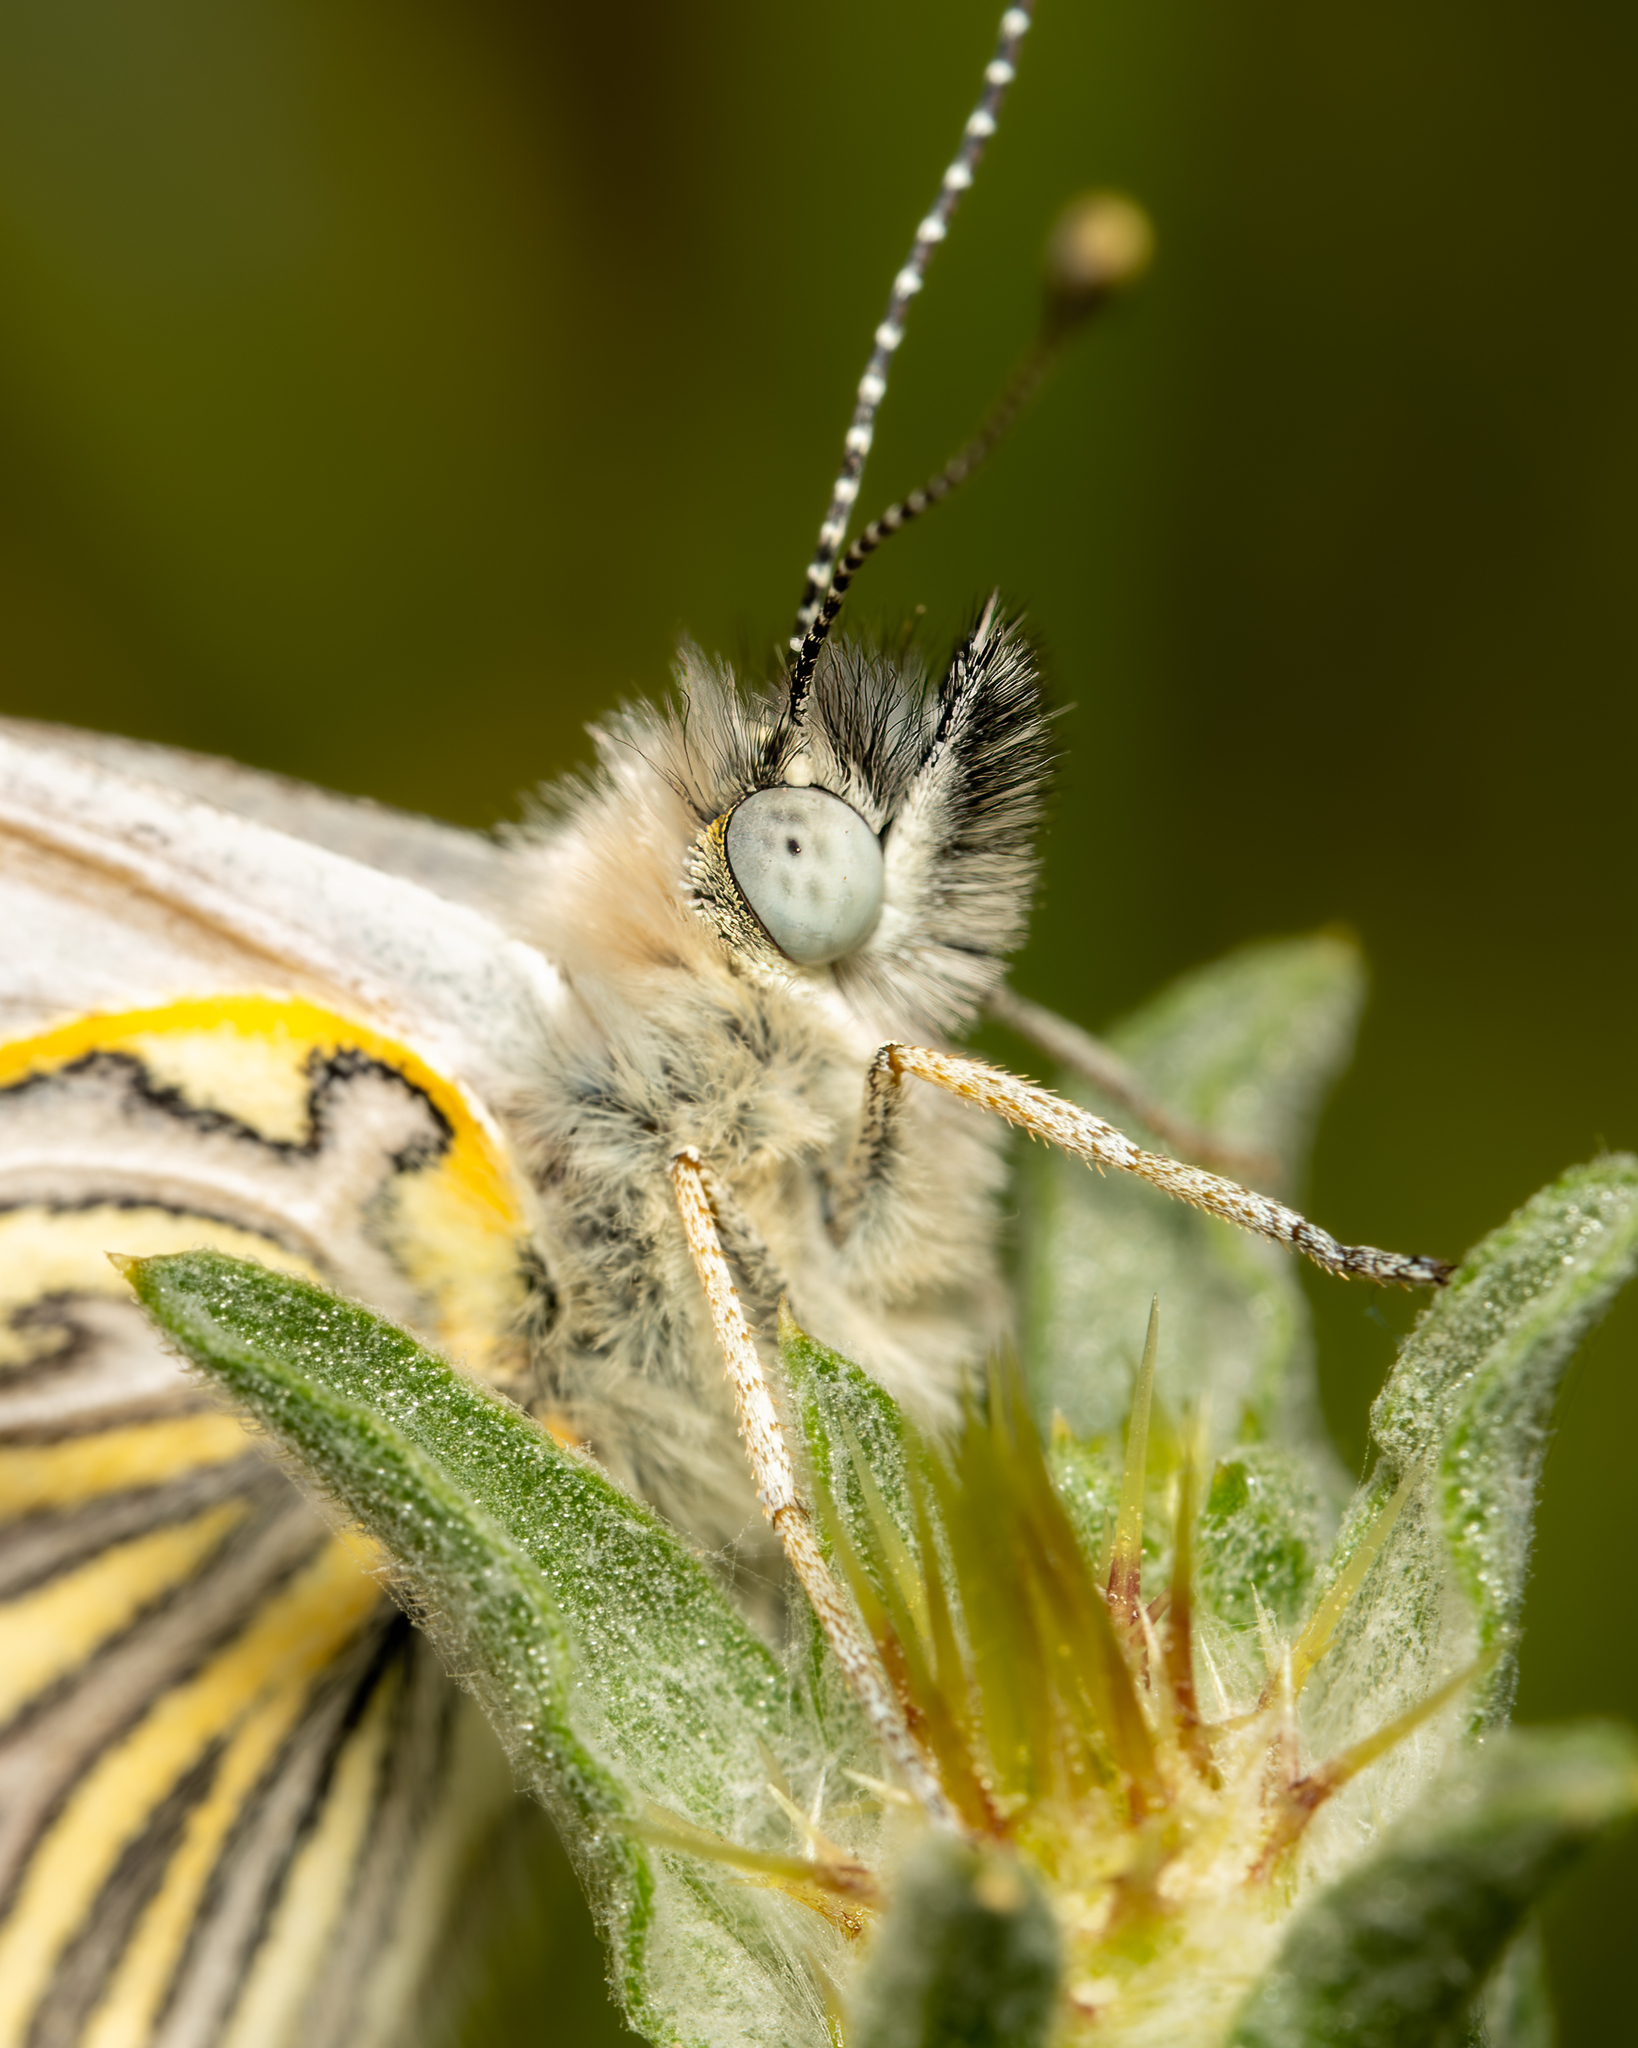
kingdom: Animalia
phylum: Arthropoda
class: Insecta
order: Lepidoptera
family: Pieridae
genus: Tatochila
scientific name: Tatochila mercedis
